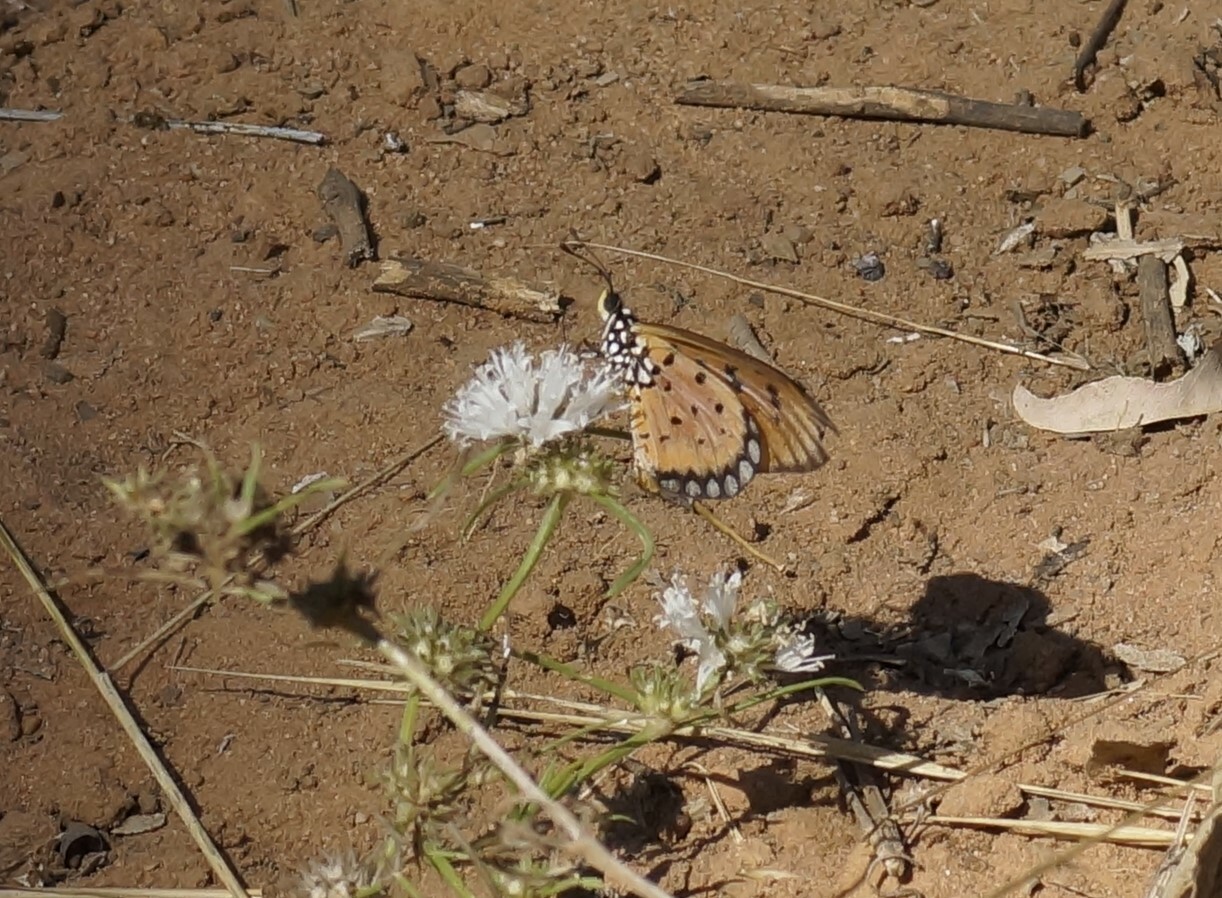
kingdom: Animalia
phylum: Arthropoda
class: Insecta
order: Lepidoptera
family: Nymphalidae
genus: Acraea
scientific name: Acraea terpsicore
